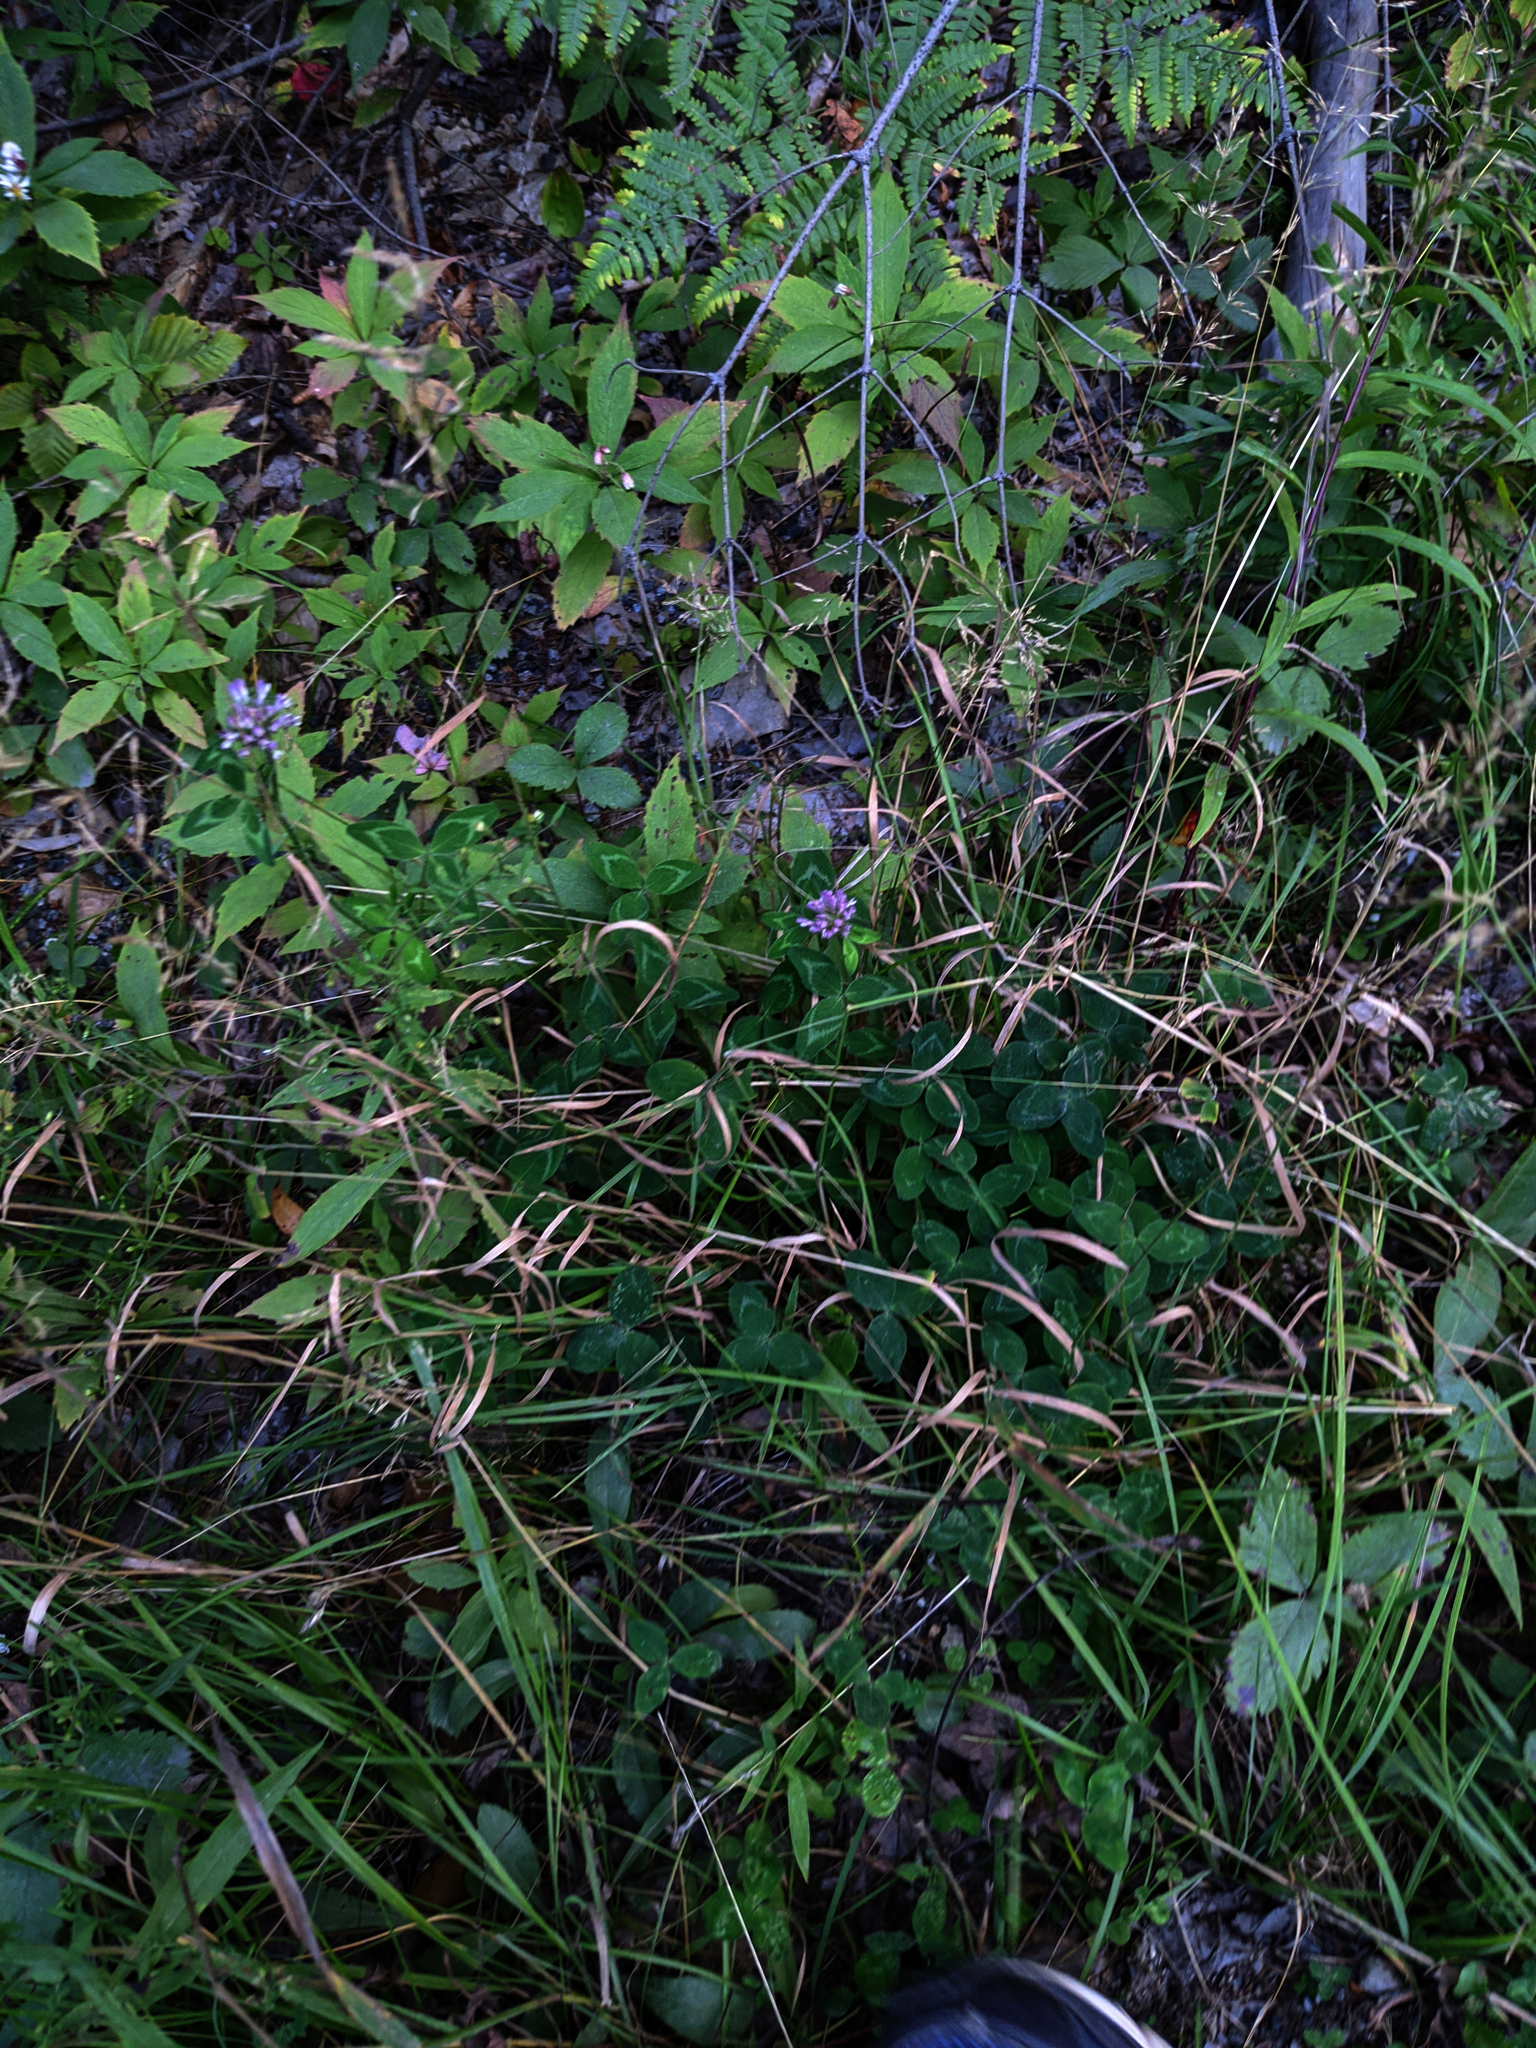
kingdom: Plantae
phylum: Tracheophyta
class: Magnoliopsida
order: Fabales
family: Fabaceae
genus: Trifolium
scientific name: Trifolium pratense
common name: Red clover
